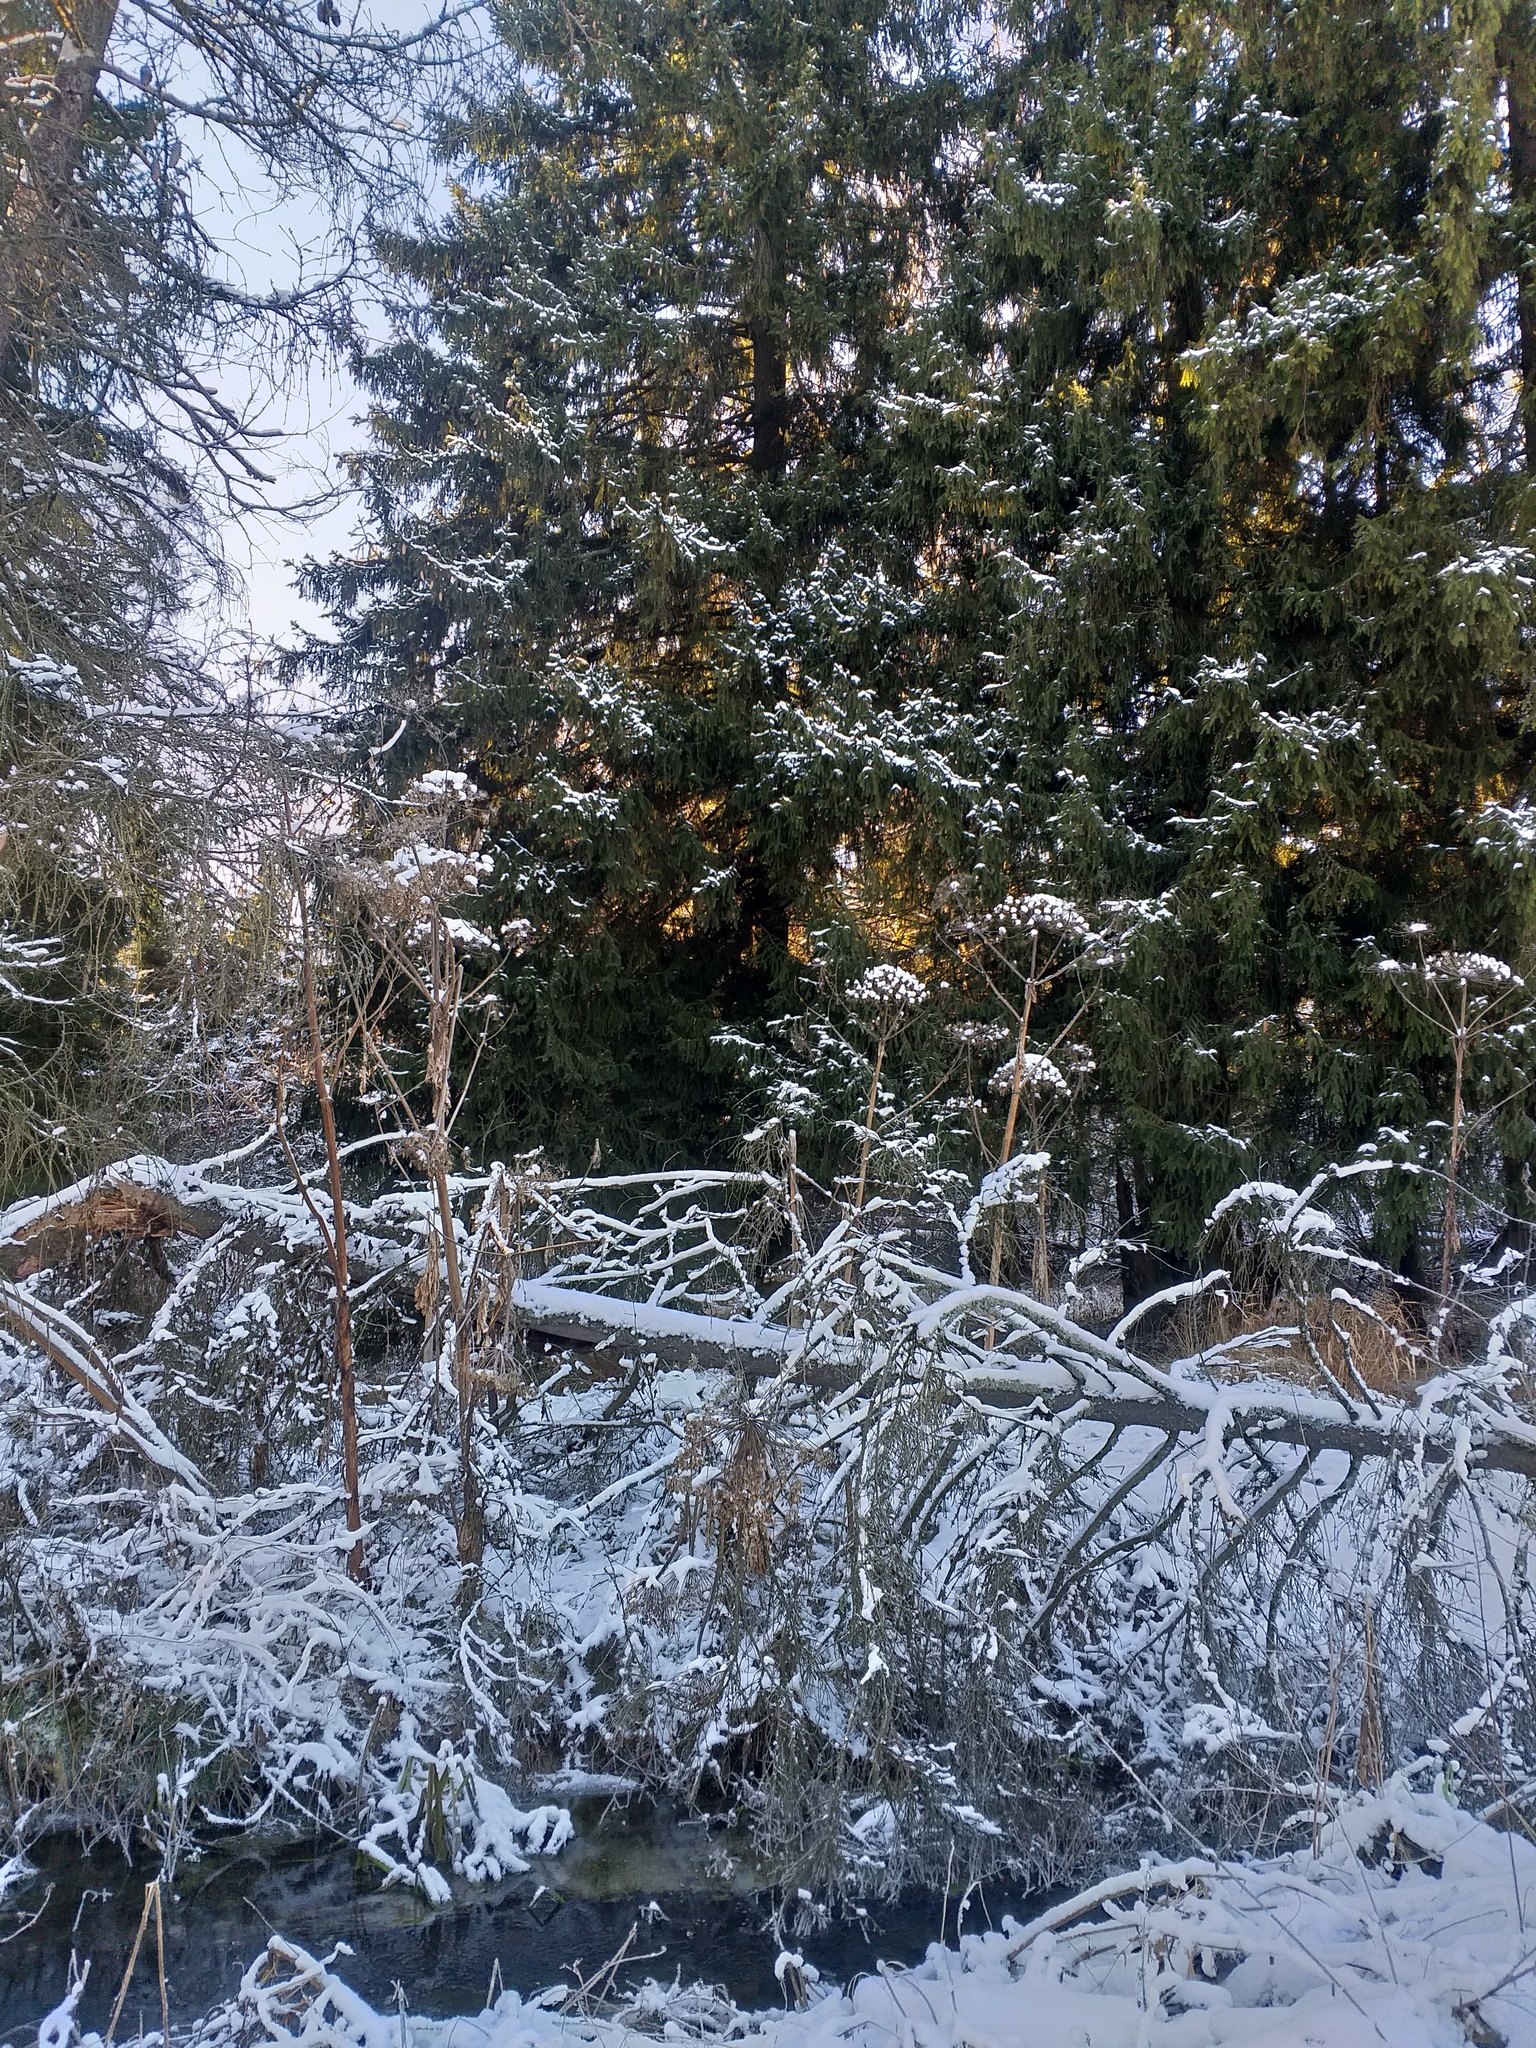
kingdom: Plantae
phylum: Tracheophyta
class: Magnoliopsida
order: Apiales
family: Apiaceae
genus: Heracleum
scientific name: Heracleum sosnowskyi
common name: Sosnowsky's hogweed
